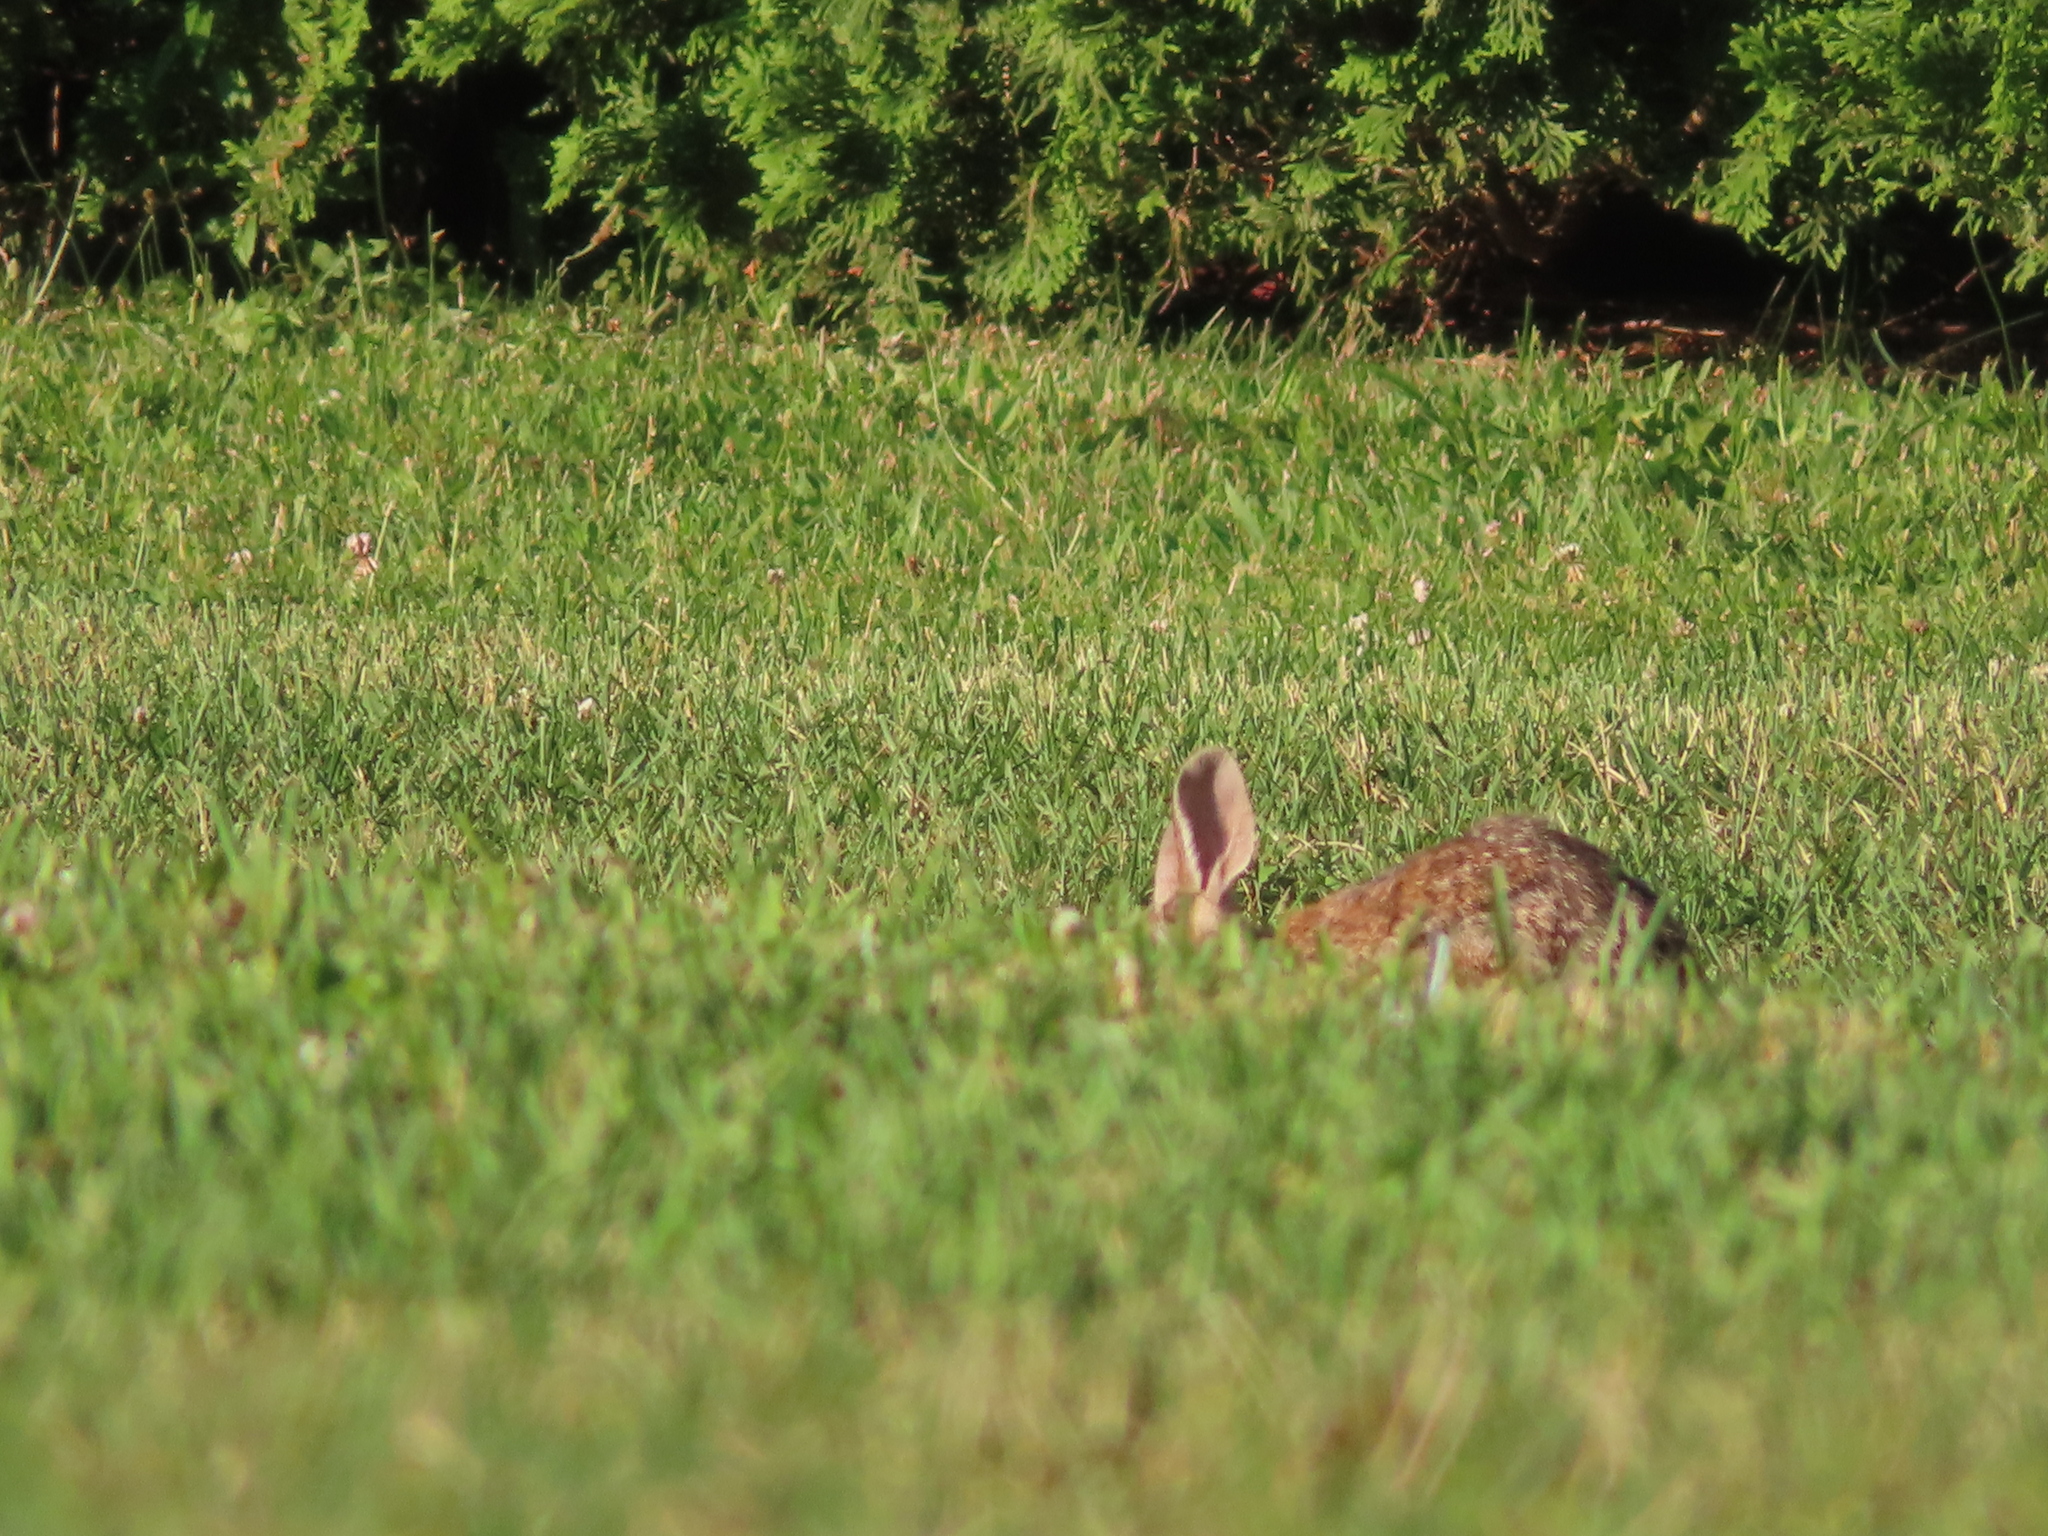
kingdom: Animalia
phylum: Chordata
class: Mammalia
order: Lagomorpha
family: Leporidae
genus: Sylvilagus
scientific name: Sylvilagus floridanus
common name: Eastern cottontail
